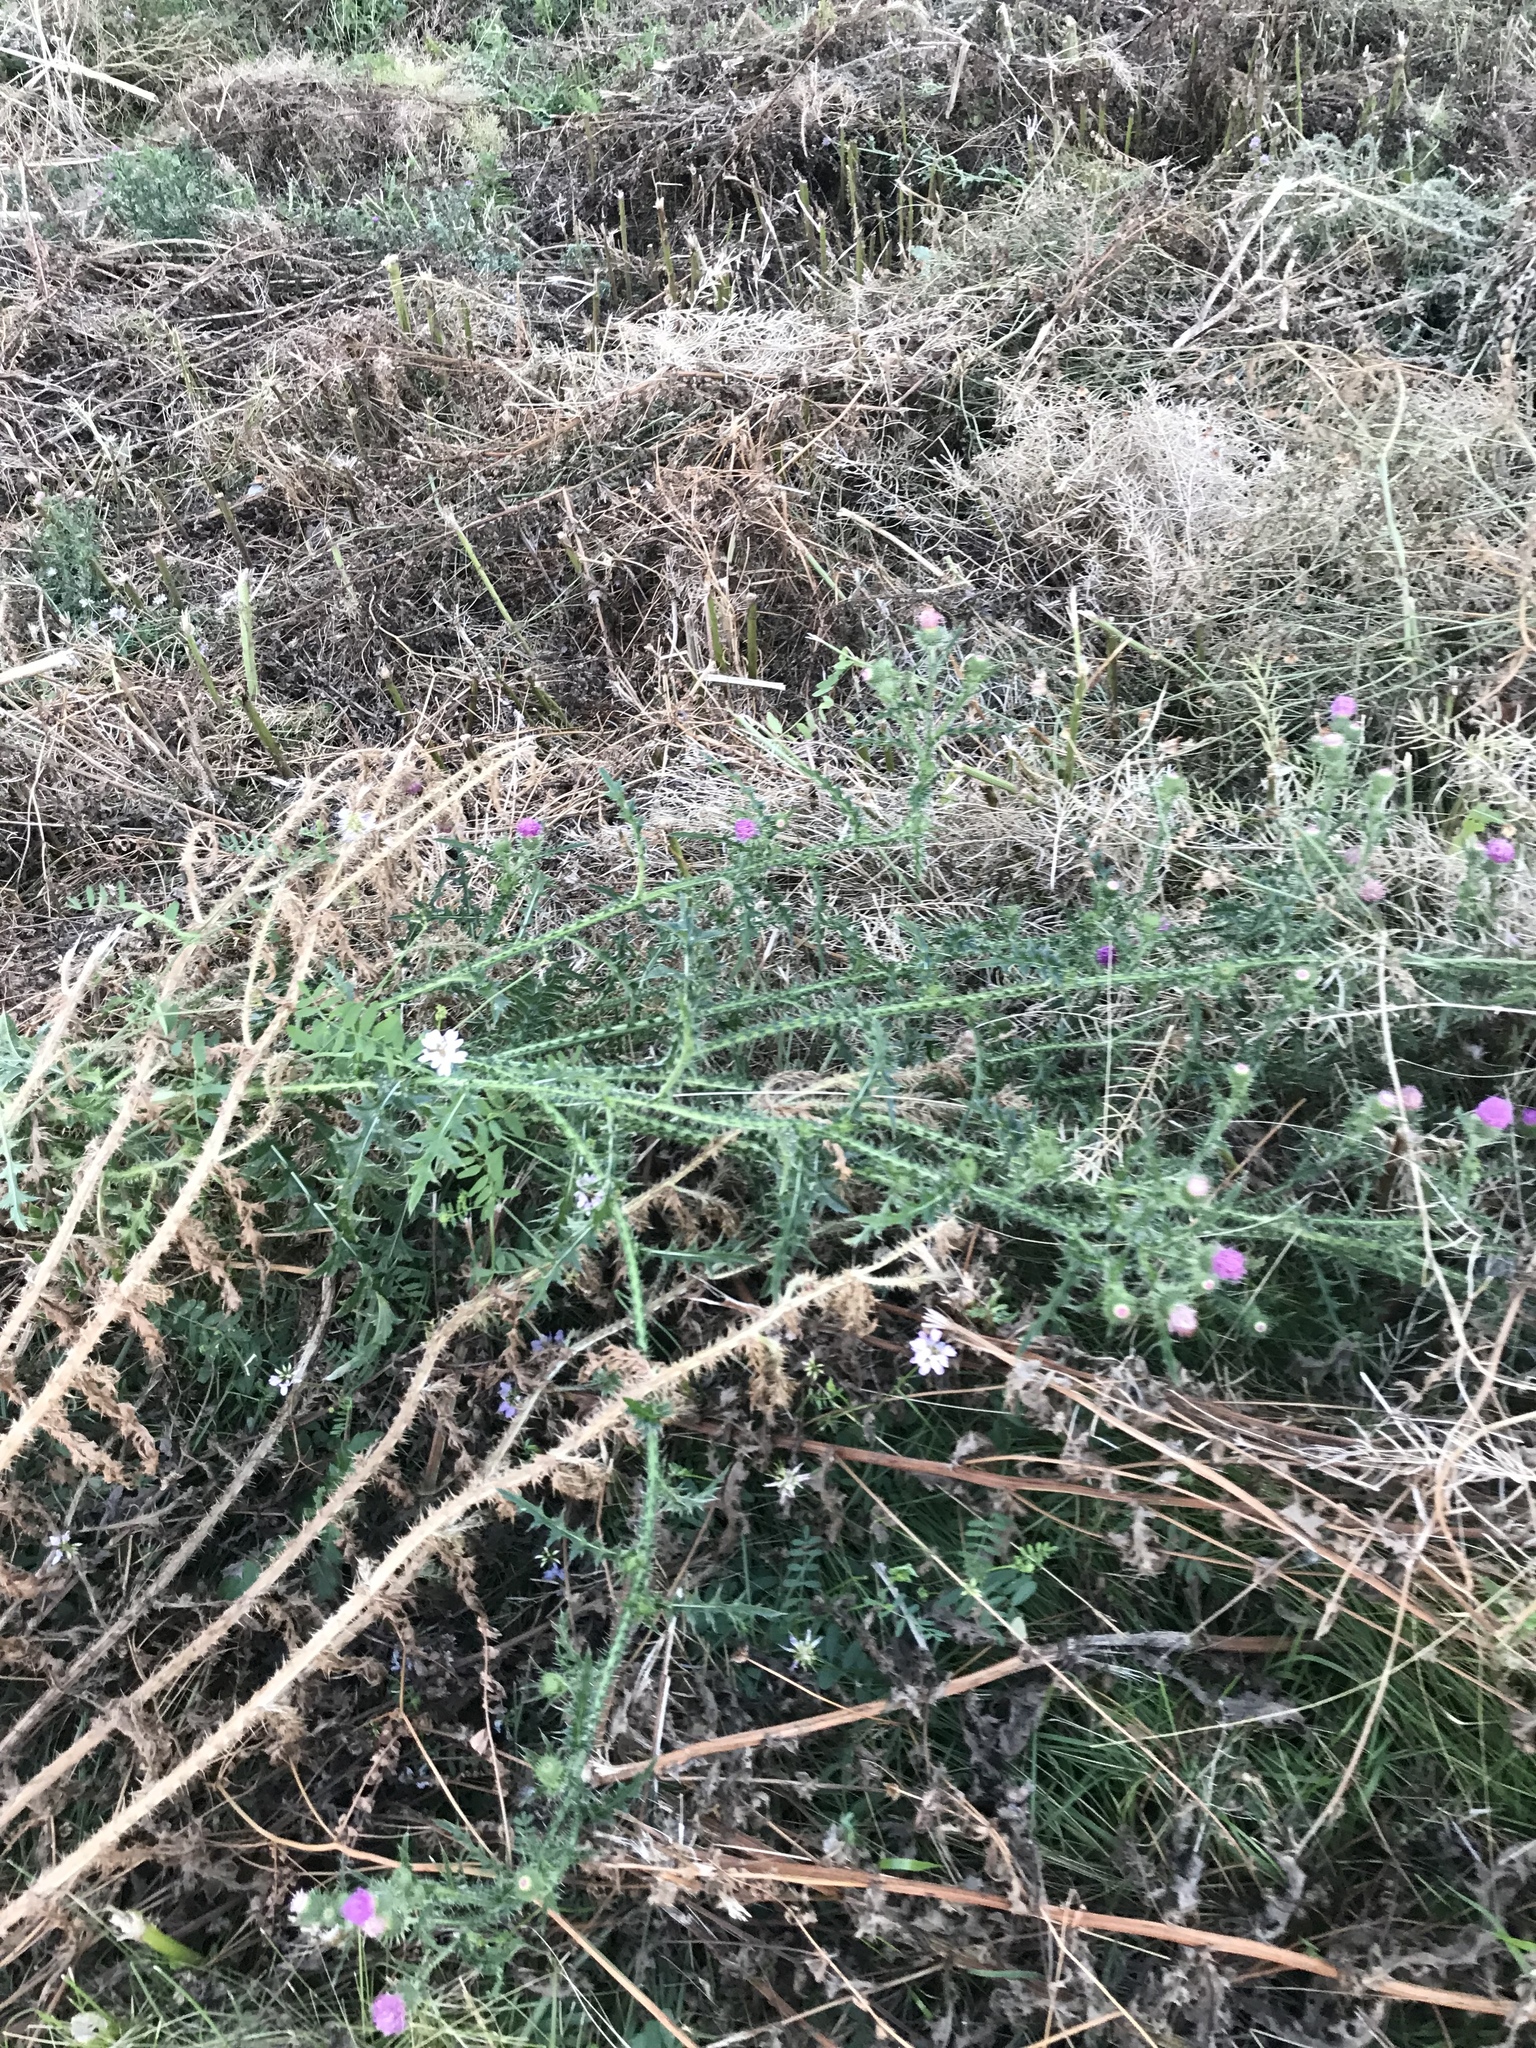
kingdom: Plantae
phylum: Tracheophyta
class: Magnoliopsida
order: Asterales
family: Asteraceae
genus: Carduus
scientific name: Carduus acanthoides
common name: Plumeless thistle
